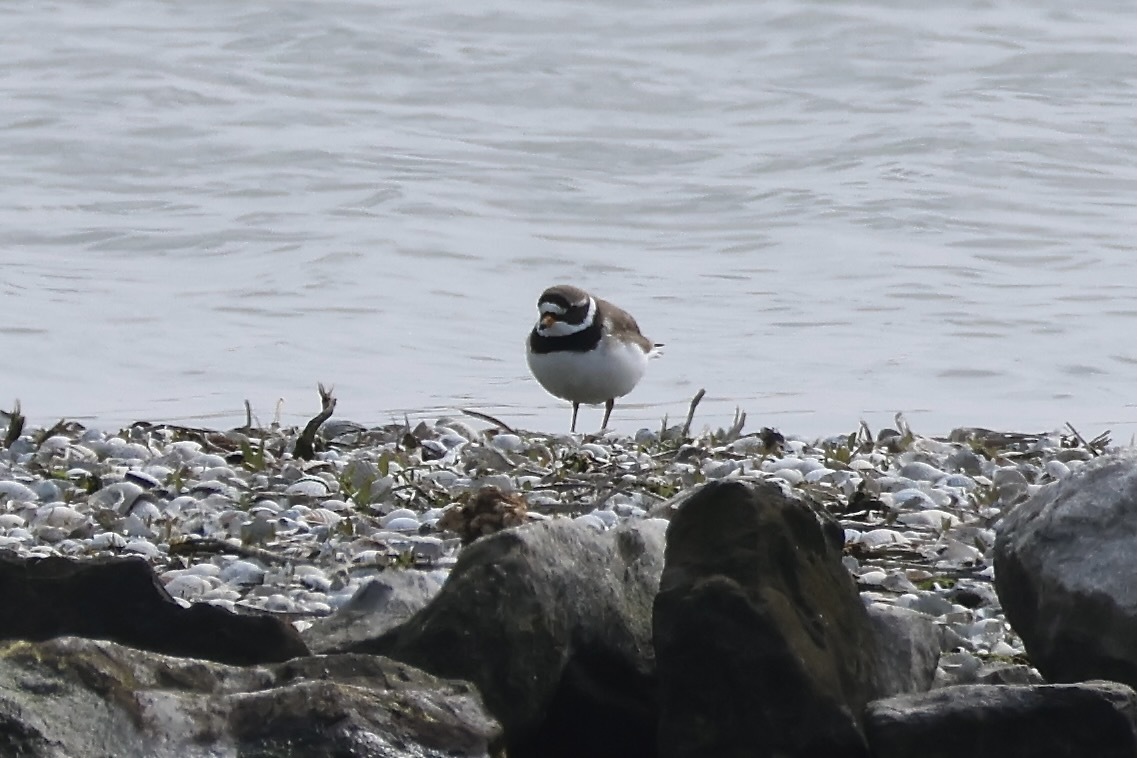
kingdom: Animalia
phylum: Chordata
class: Aves
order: Charadriiformes
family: Charadriidae
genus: Charadrius
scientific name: Charadrius hiaticula
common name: Common ringed plover
